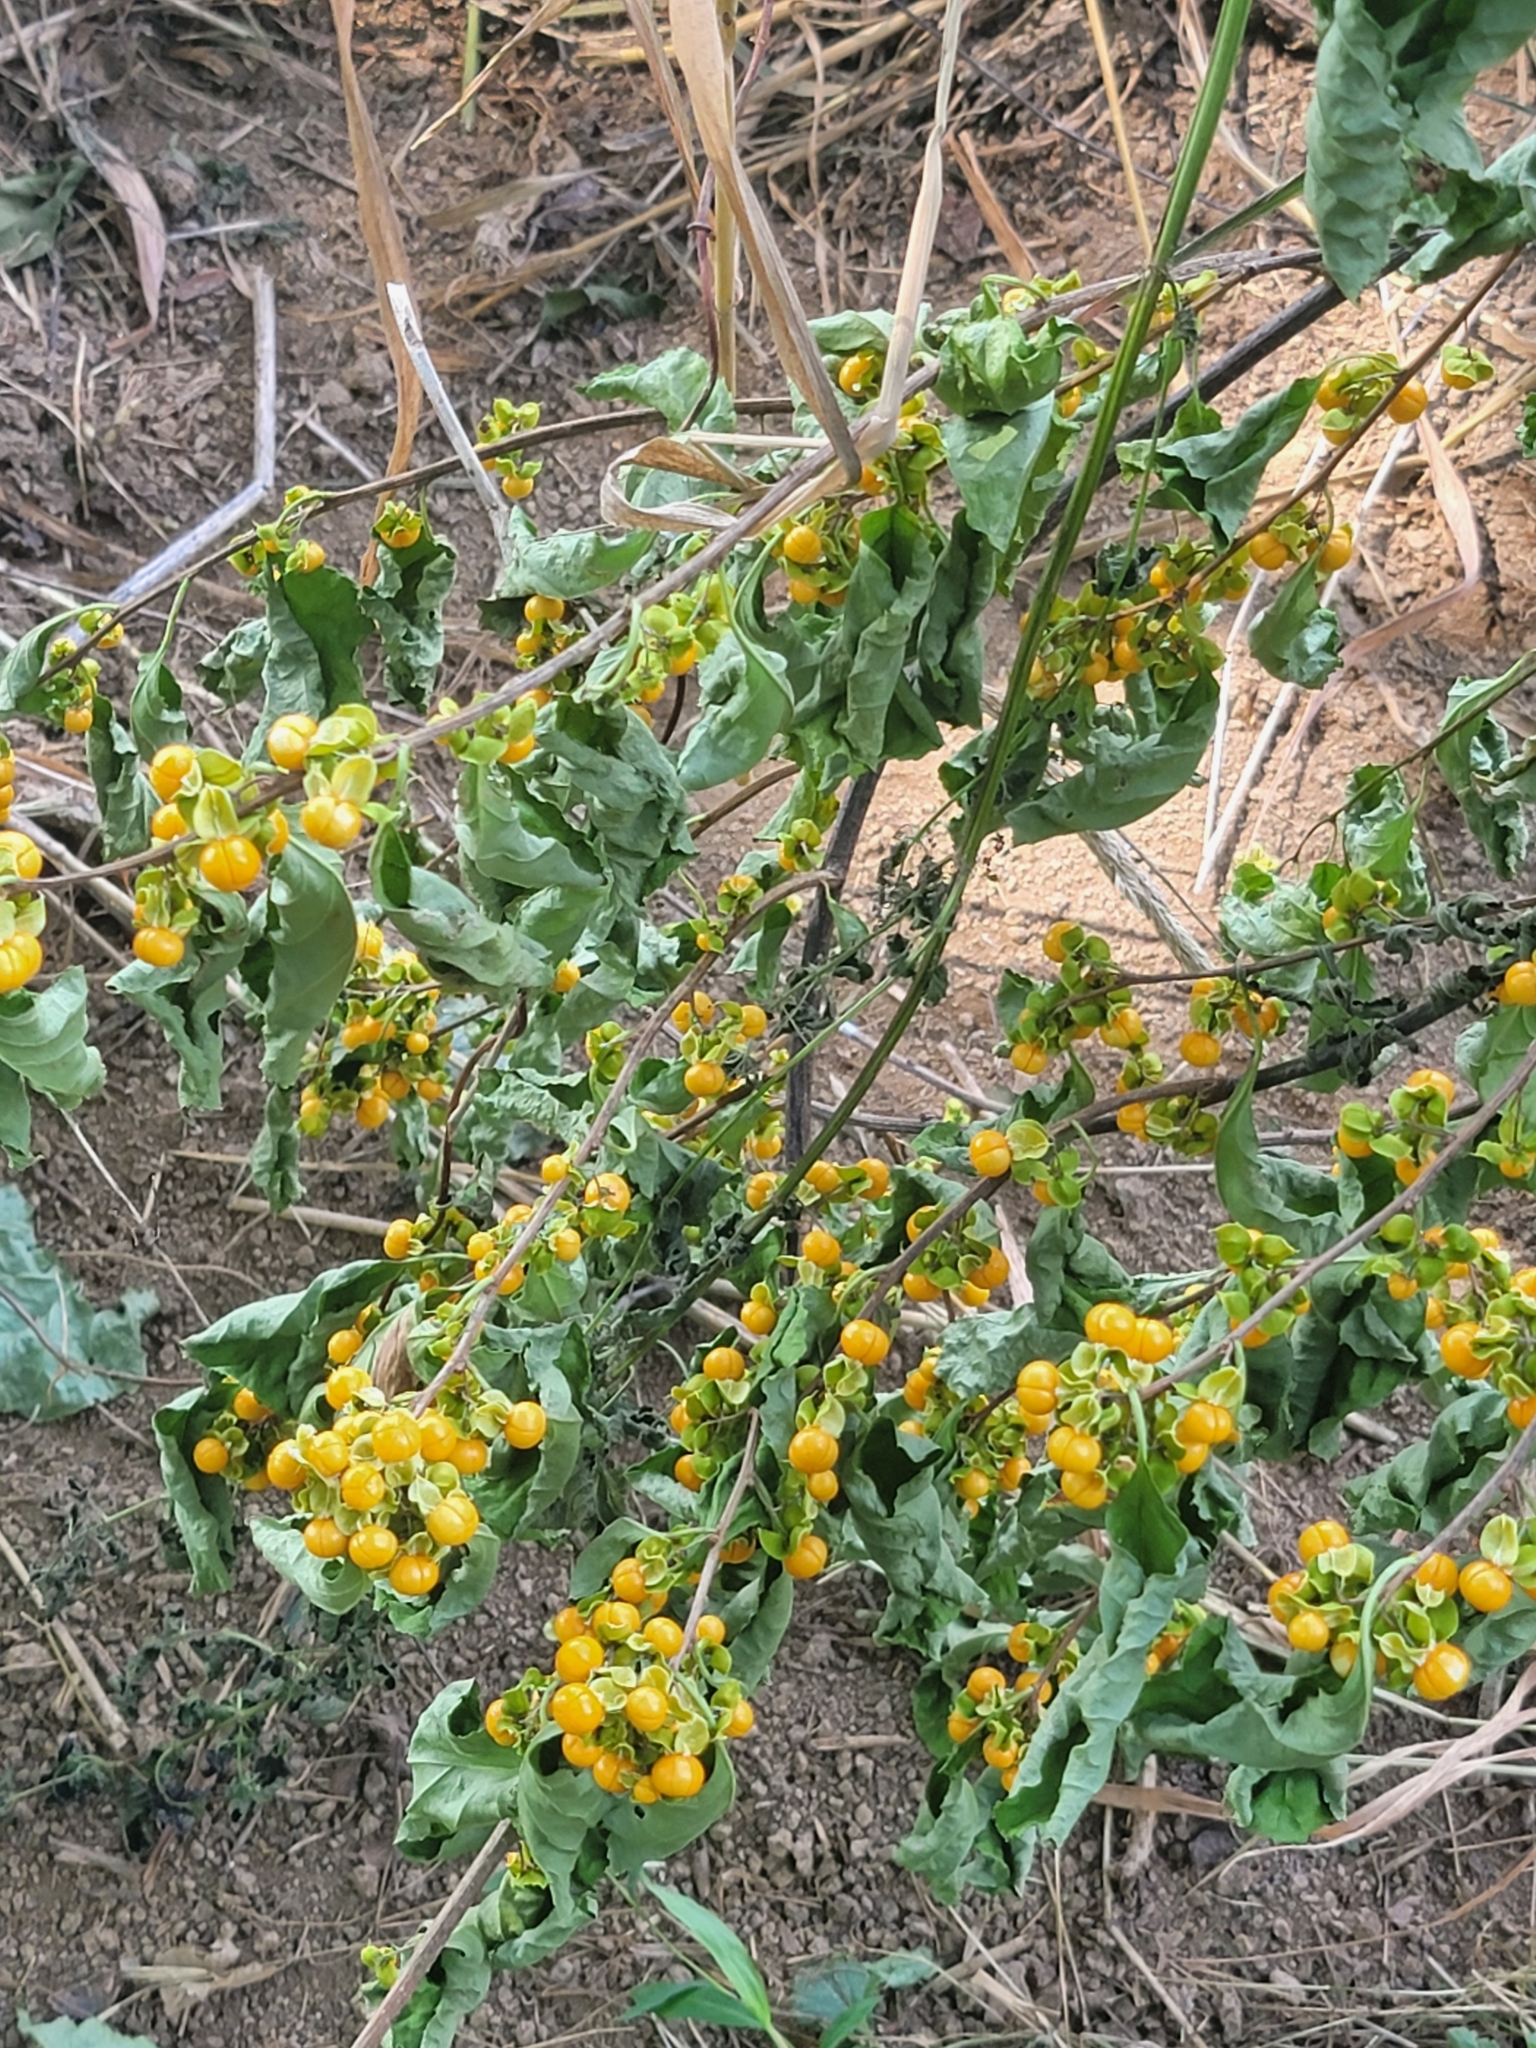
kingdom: Plantae
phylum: Tracheophyta
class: Magnoliopsida
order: Celastrales
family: Celastraceae
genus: Celastrus
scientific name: Celastrus orbiculatus
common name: Oriental bittersweet
